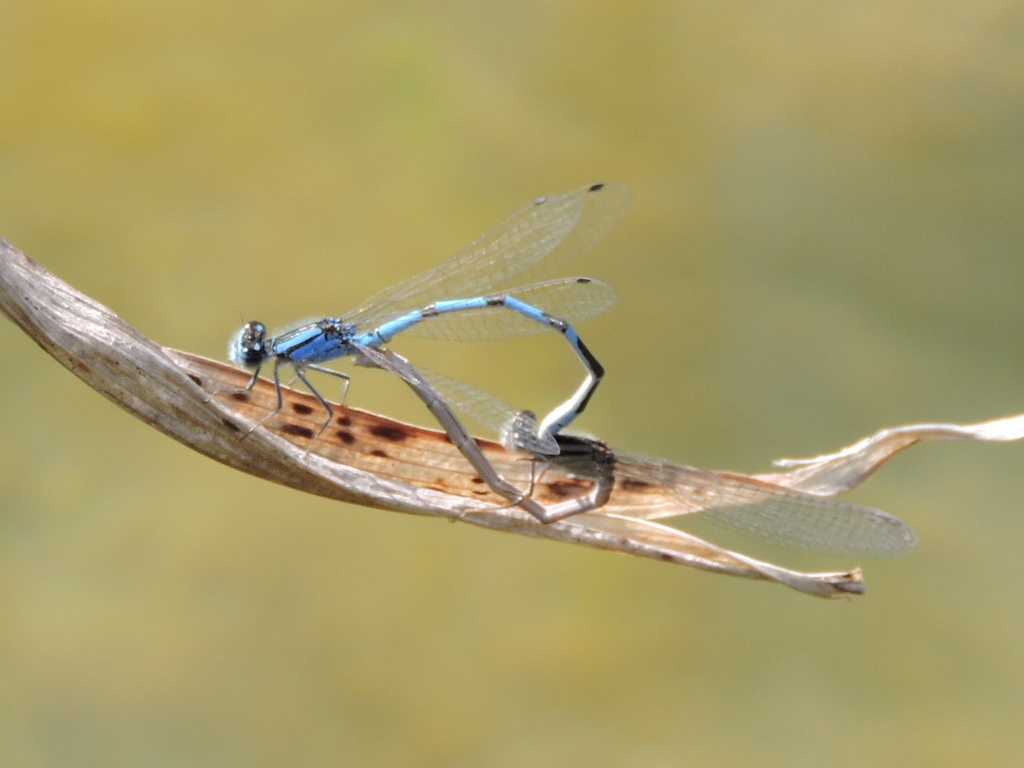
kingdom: Animalia
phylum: Arthropoda
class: Insecta
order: Odonata
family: Coenagrionidae
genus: Enallagma
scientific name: Enallagma civile
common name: Damselfly
